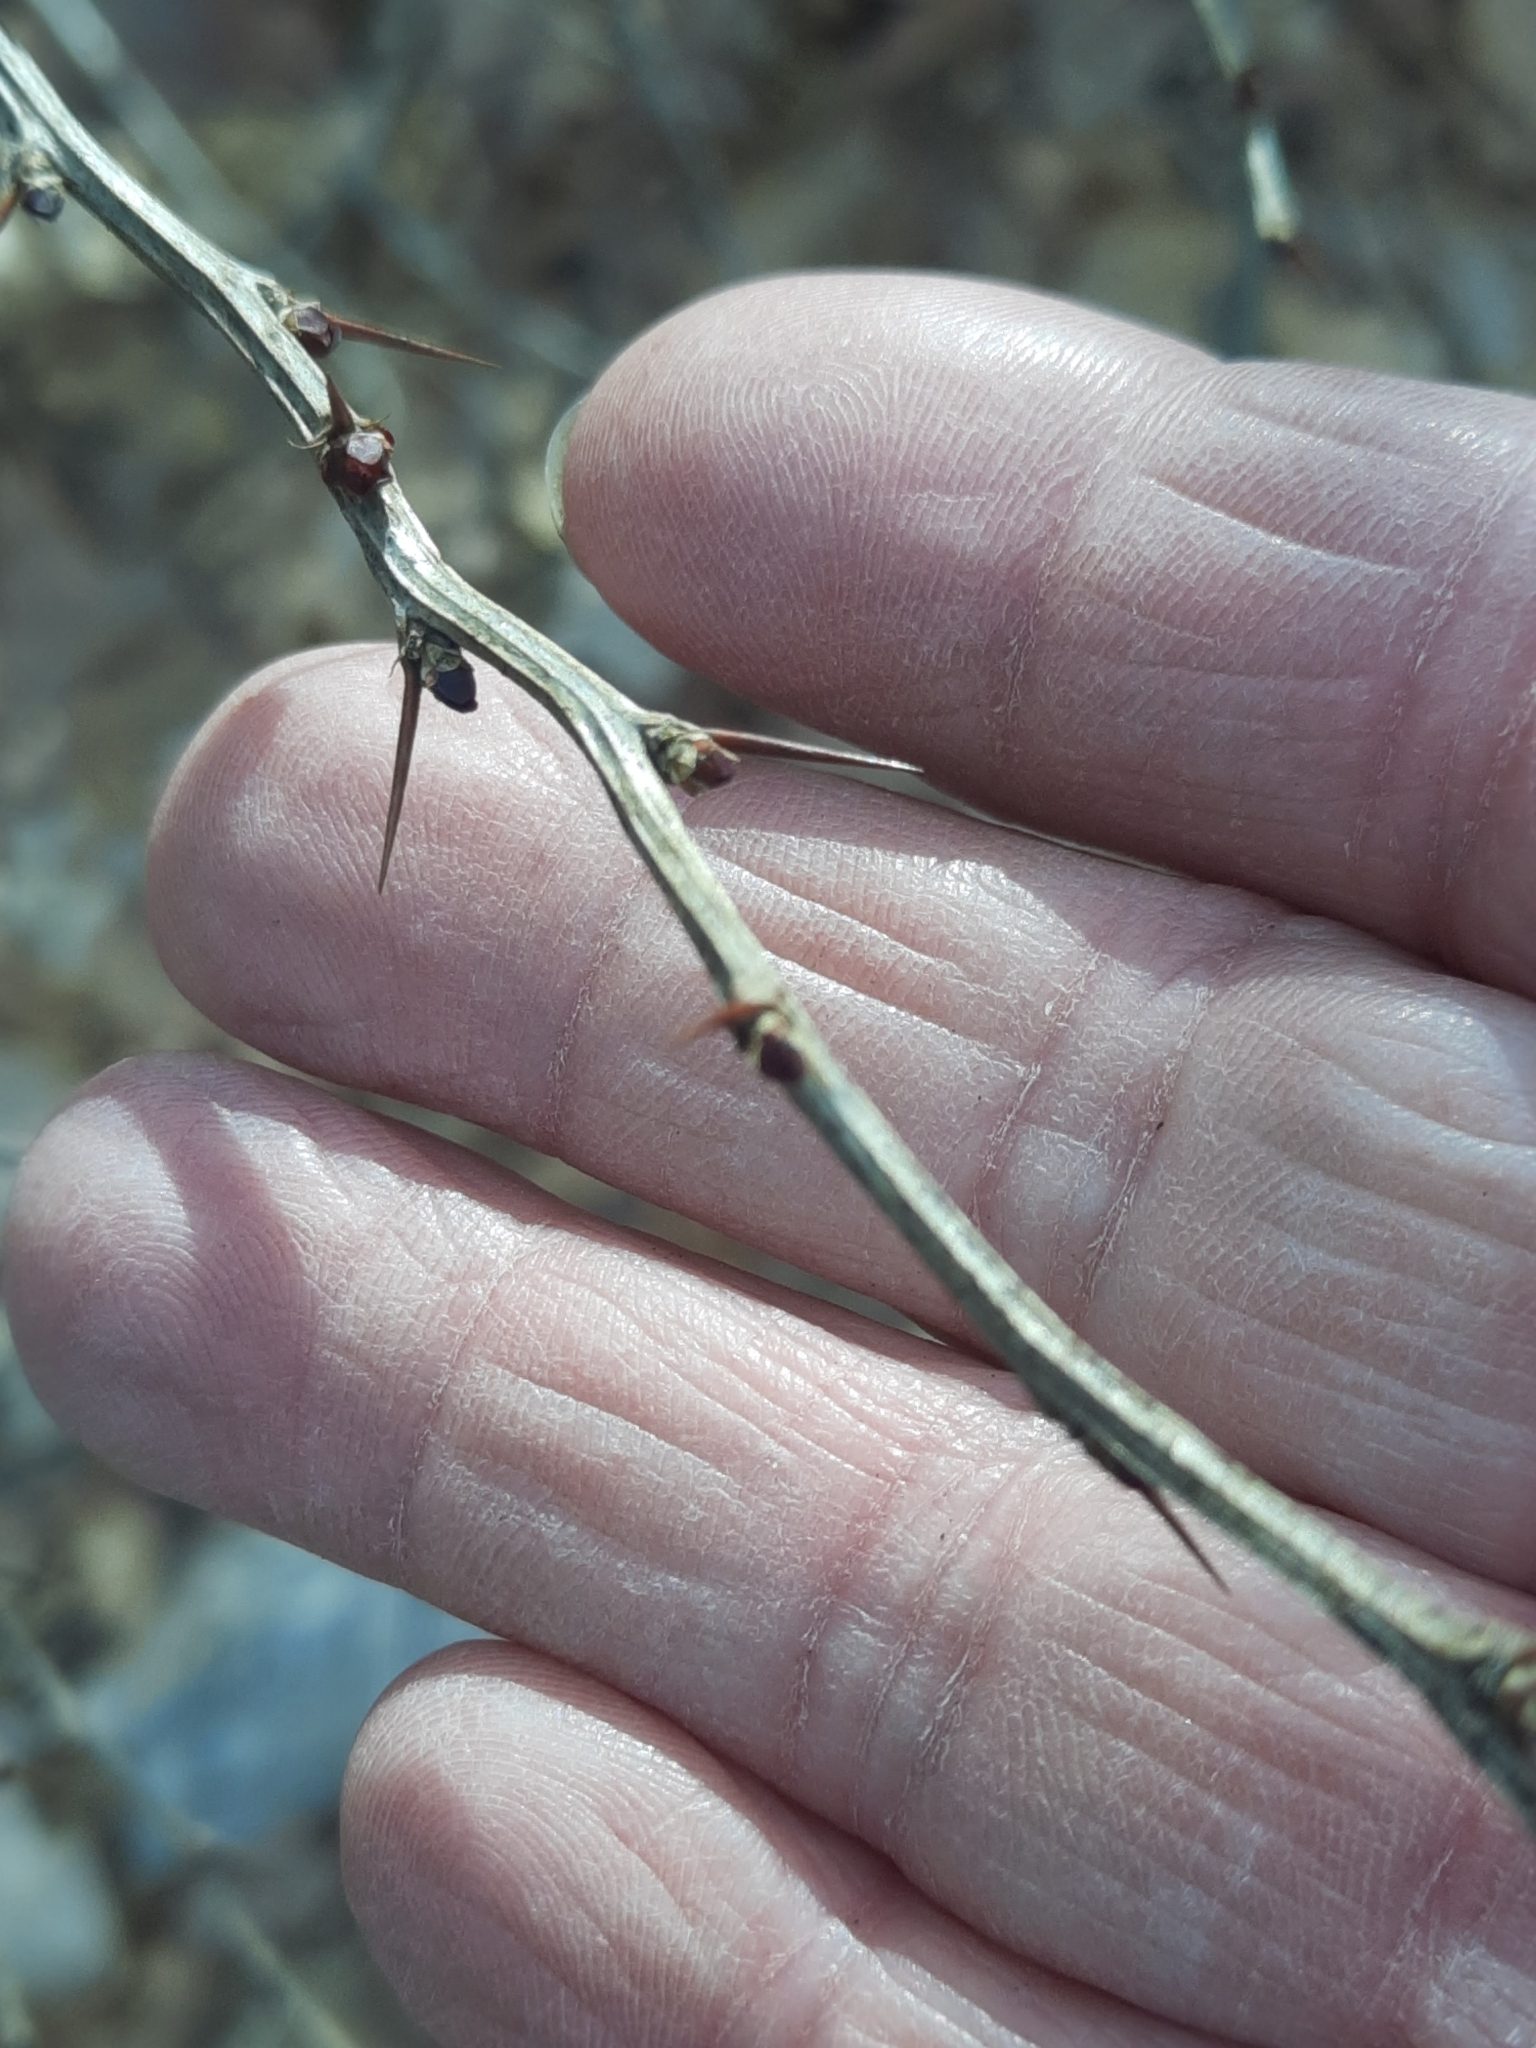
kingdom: Plantae
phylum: Tracheophyta
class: Magnoliopsida
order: Ranunculales
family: Berberidaceae
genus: Berberis
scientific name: Berberis thunbergii
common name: Japanese barberry
